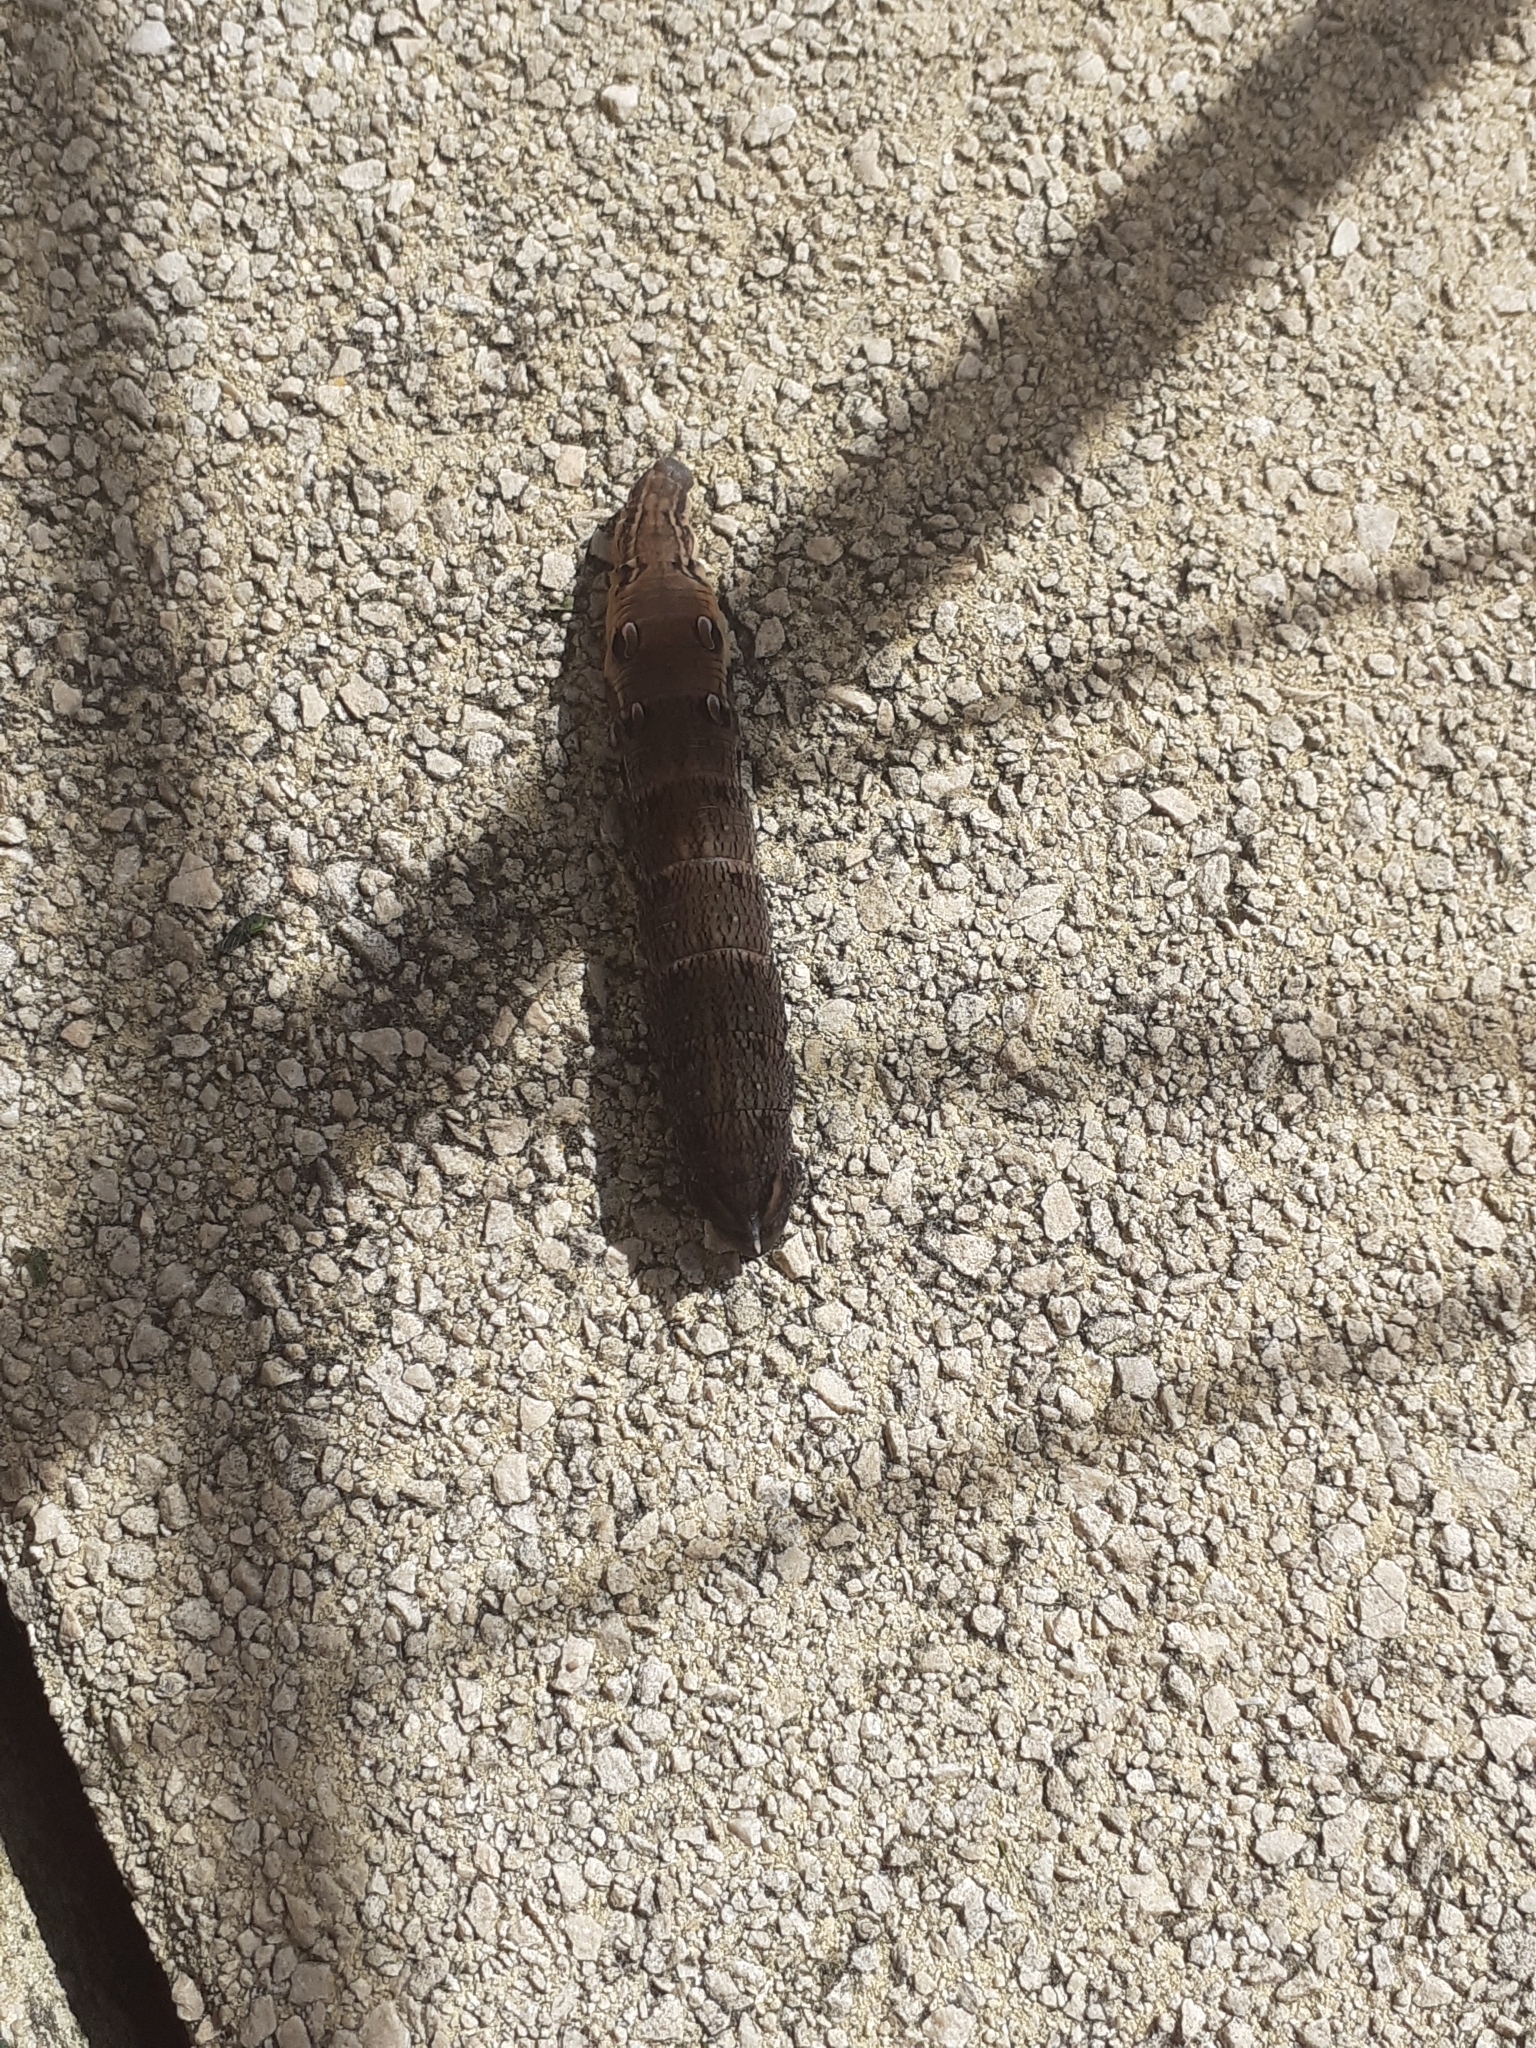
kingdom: Animalia
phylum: Arthropoda
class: Insecta
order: Lepidoptera
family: Sphingidae
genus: Deilephila
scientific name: Deilephila elpenor
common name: Elephant hawk-moth
